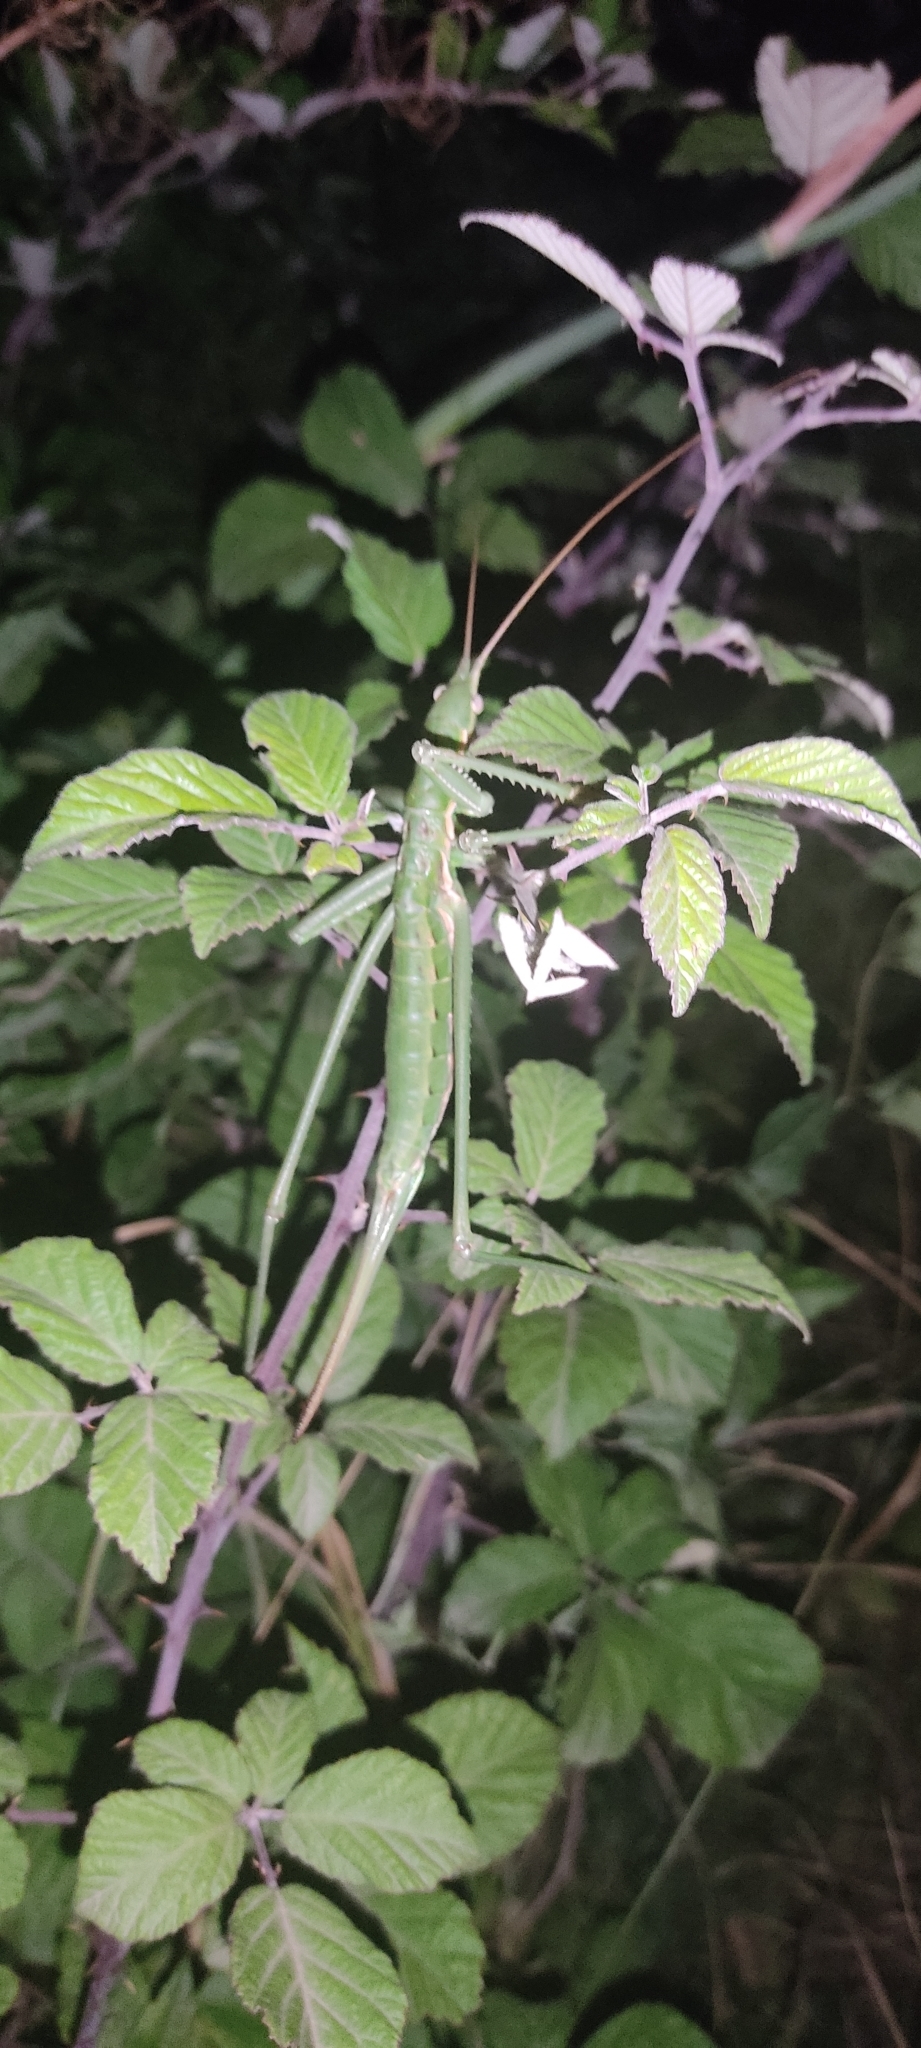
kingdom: Animalia
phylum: Arthropoda
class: Insecta
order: Orthoptera
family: Tettigoniidae
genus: Saga
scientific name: Saga pedo
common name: Common predatory bush-cricket
